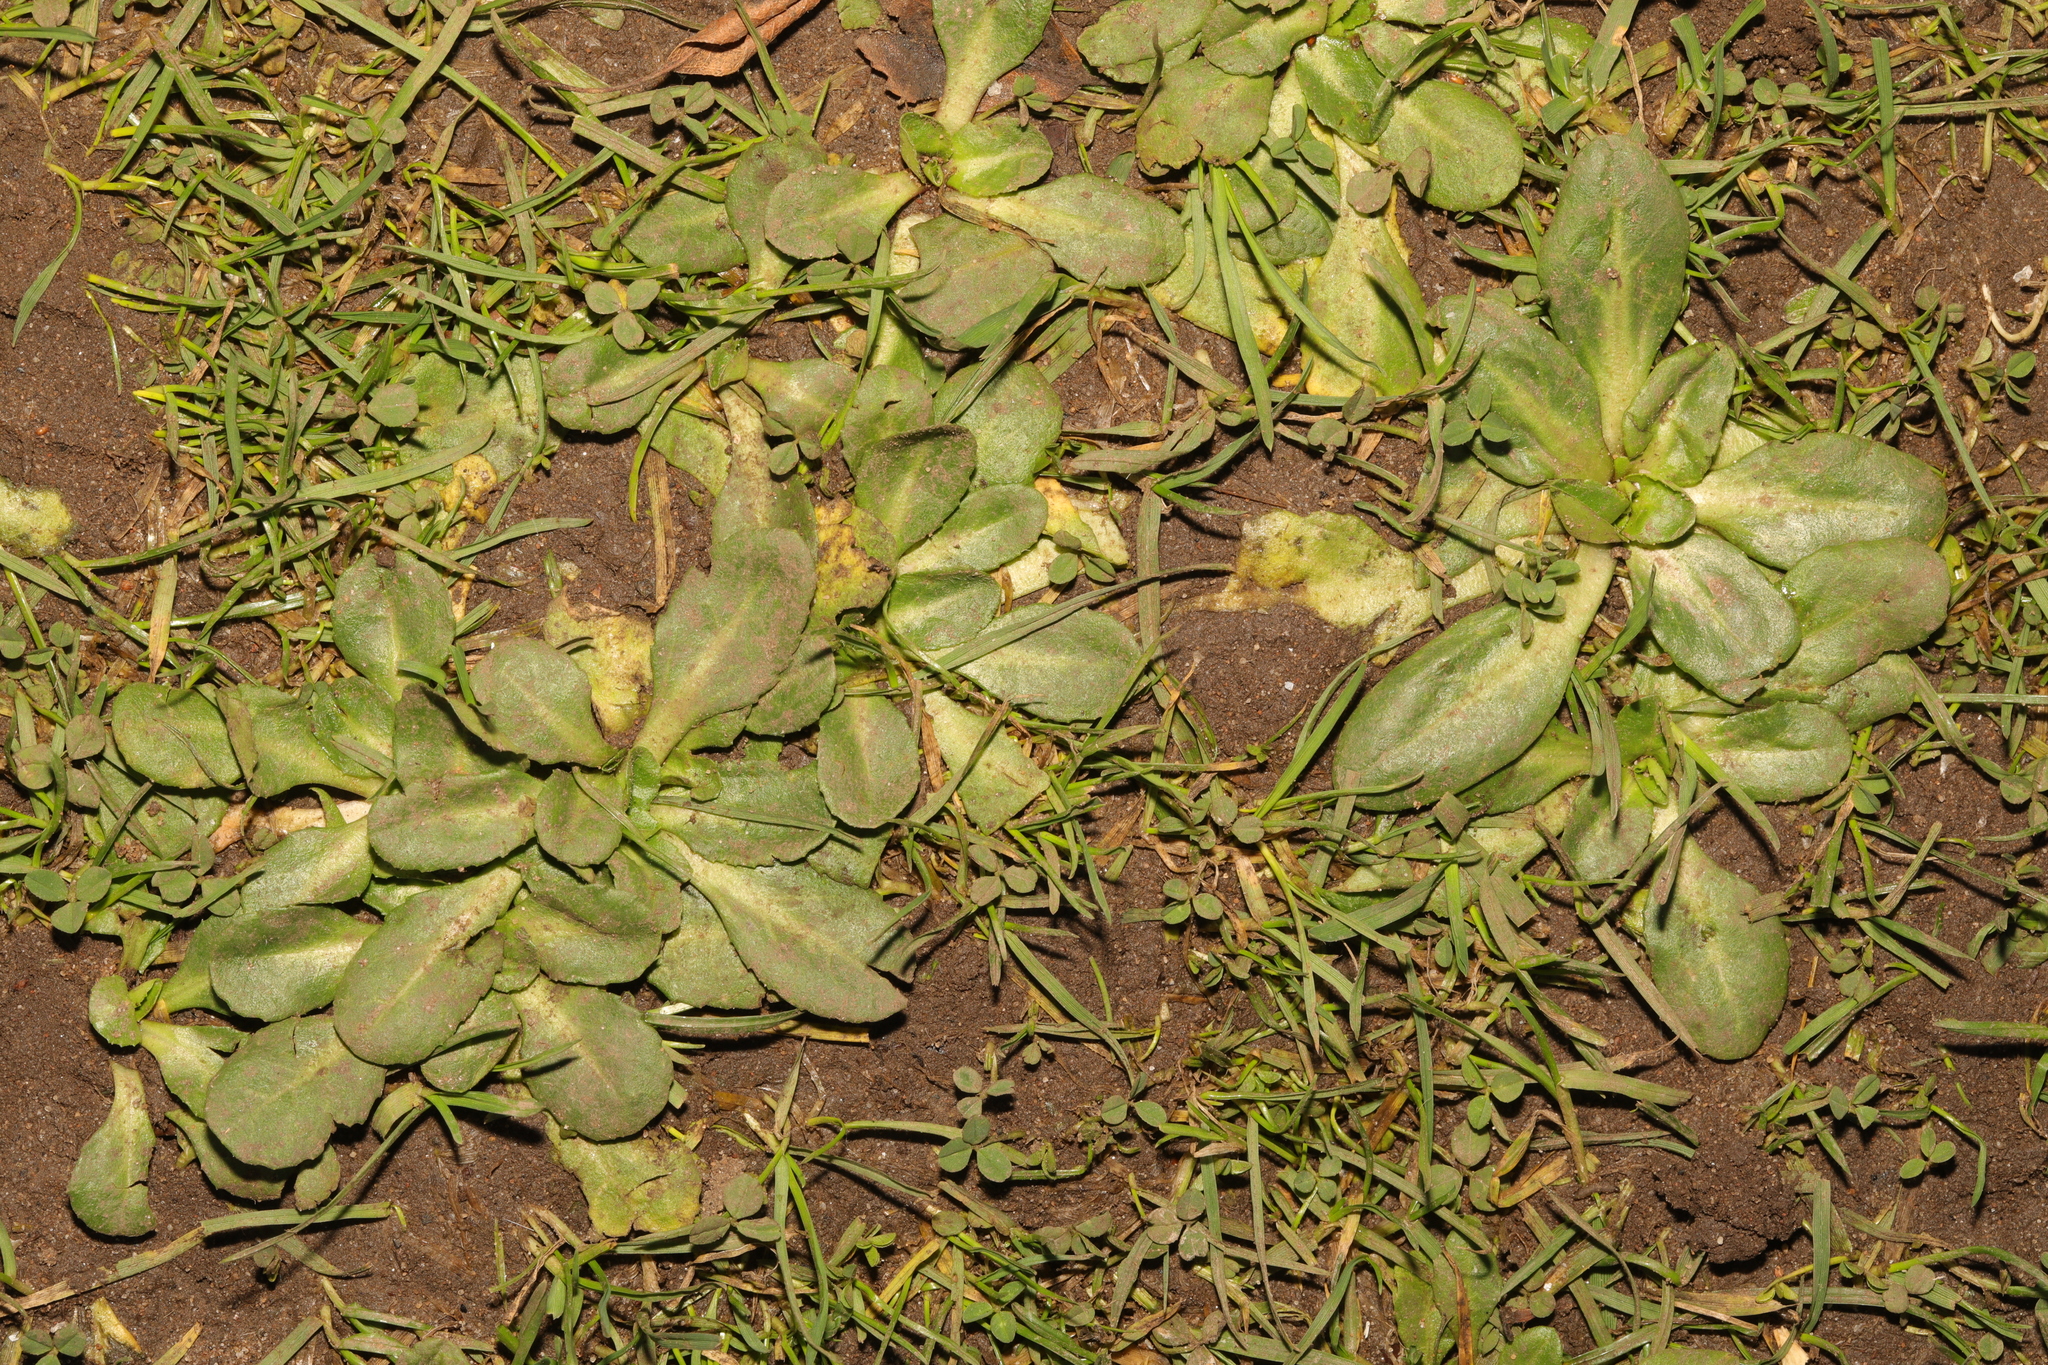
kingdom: Plantae
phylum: Tracheophyta
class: Magnoliopsida
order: Asterales
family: Asteraceae
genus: Bellis
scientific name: Bellis perennis
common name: Lawndaisy
